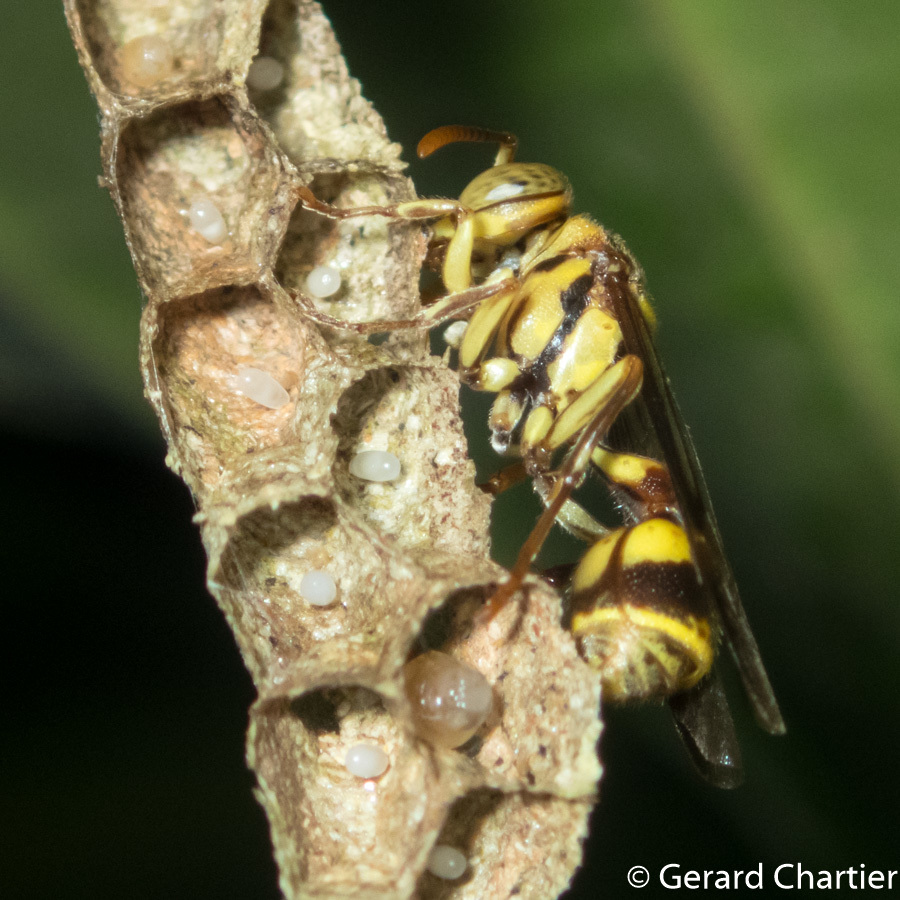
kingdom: Animalia
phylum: Arthropoda
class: Insecta
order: Hymenoptera
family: Vespidae
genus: Ropalidia
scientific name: Ropalidia stigma
